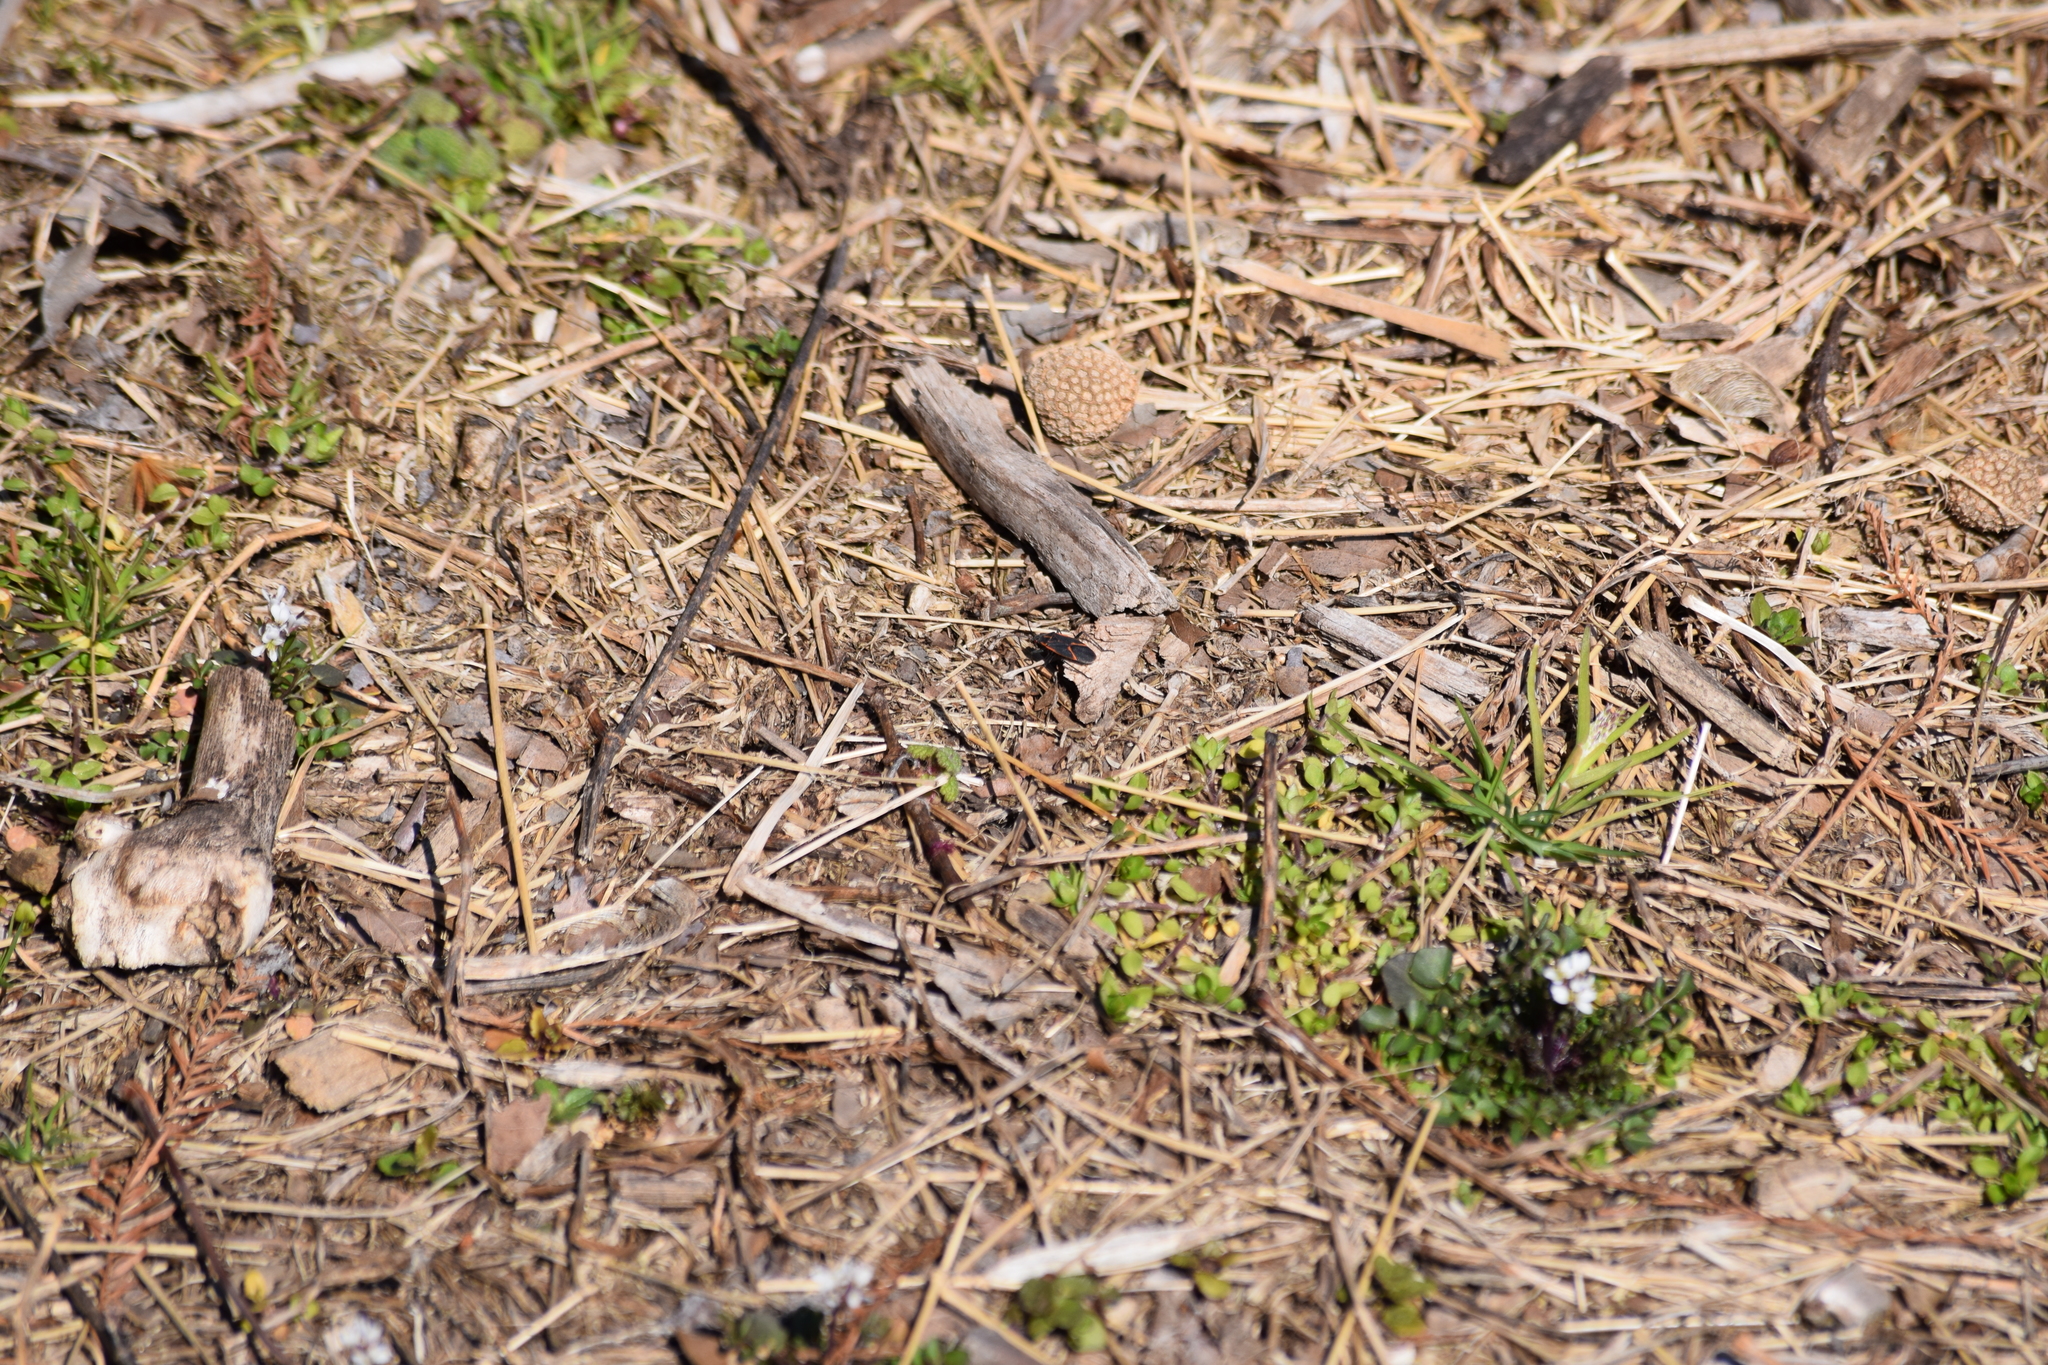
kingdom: Animalia
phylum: Arthropoda
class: Insecta
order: Hemiptera
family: Rhopalidae
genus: Boisea
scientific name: Boisea trivittata
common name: Boxelder bug
